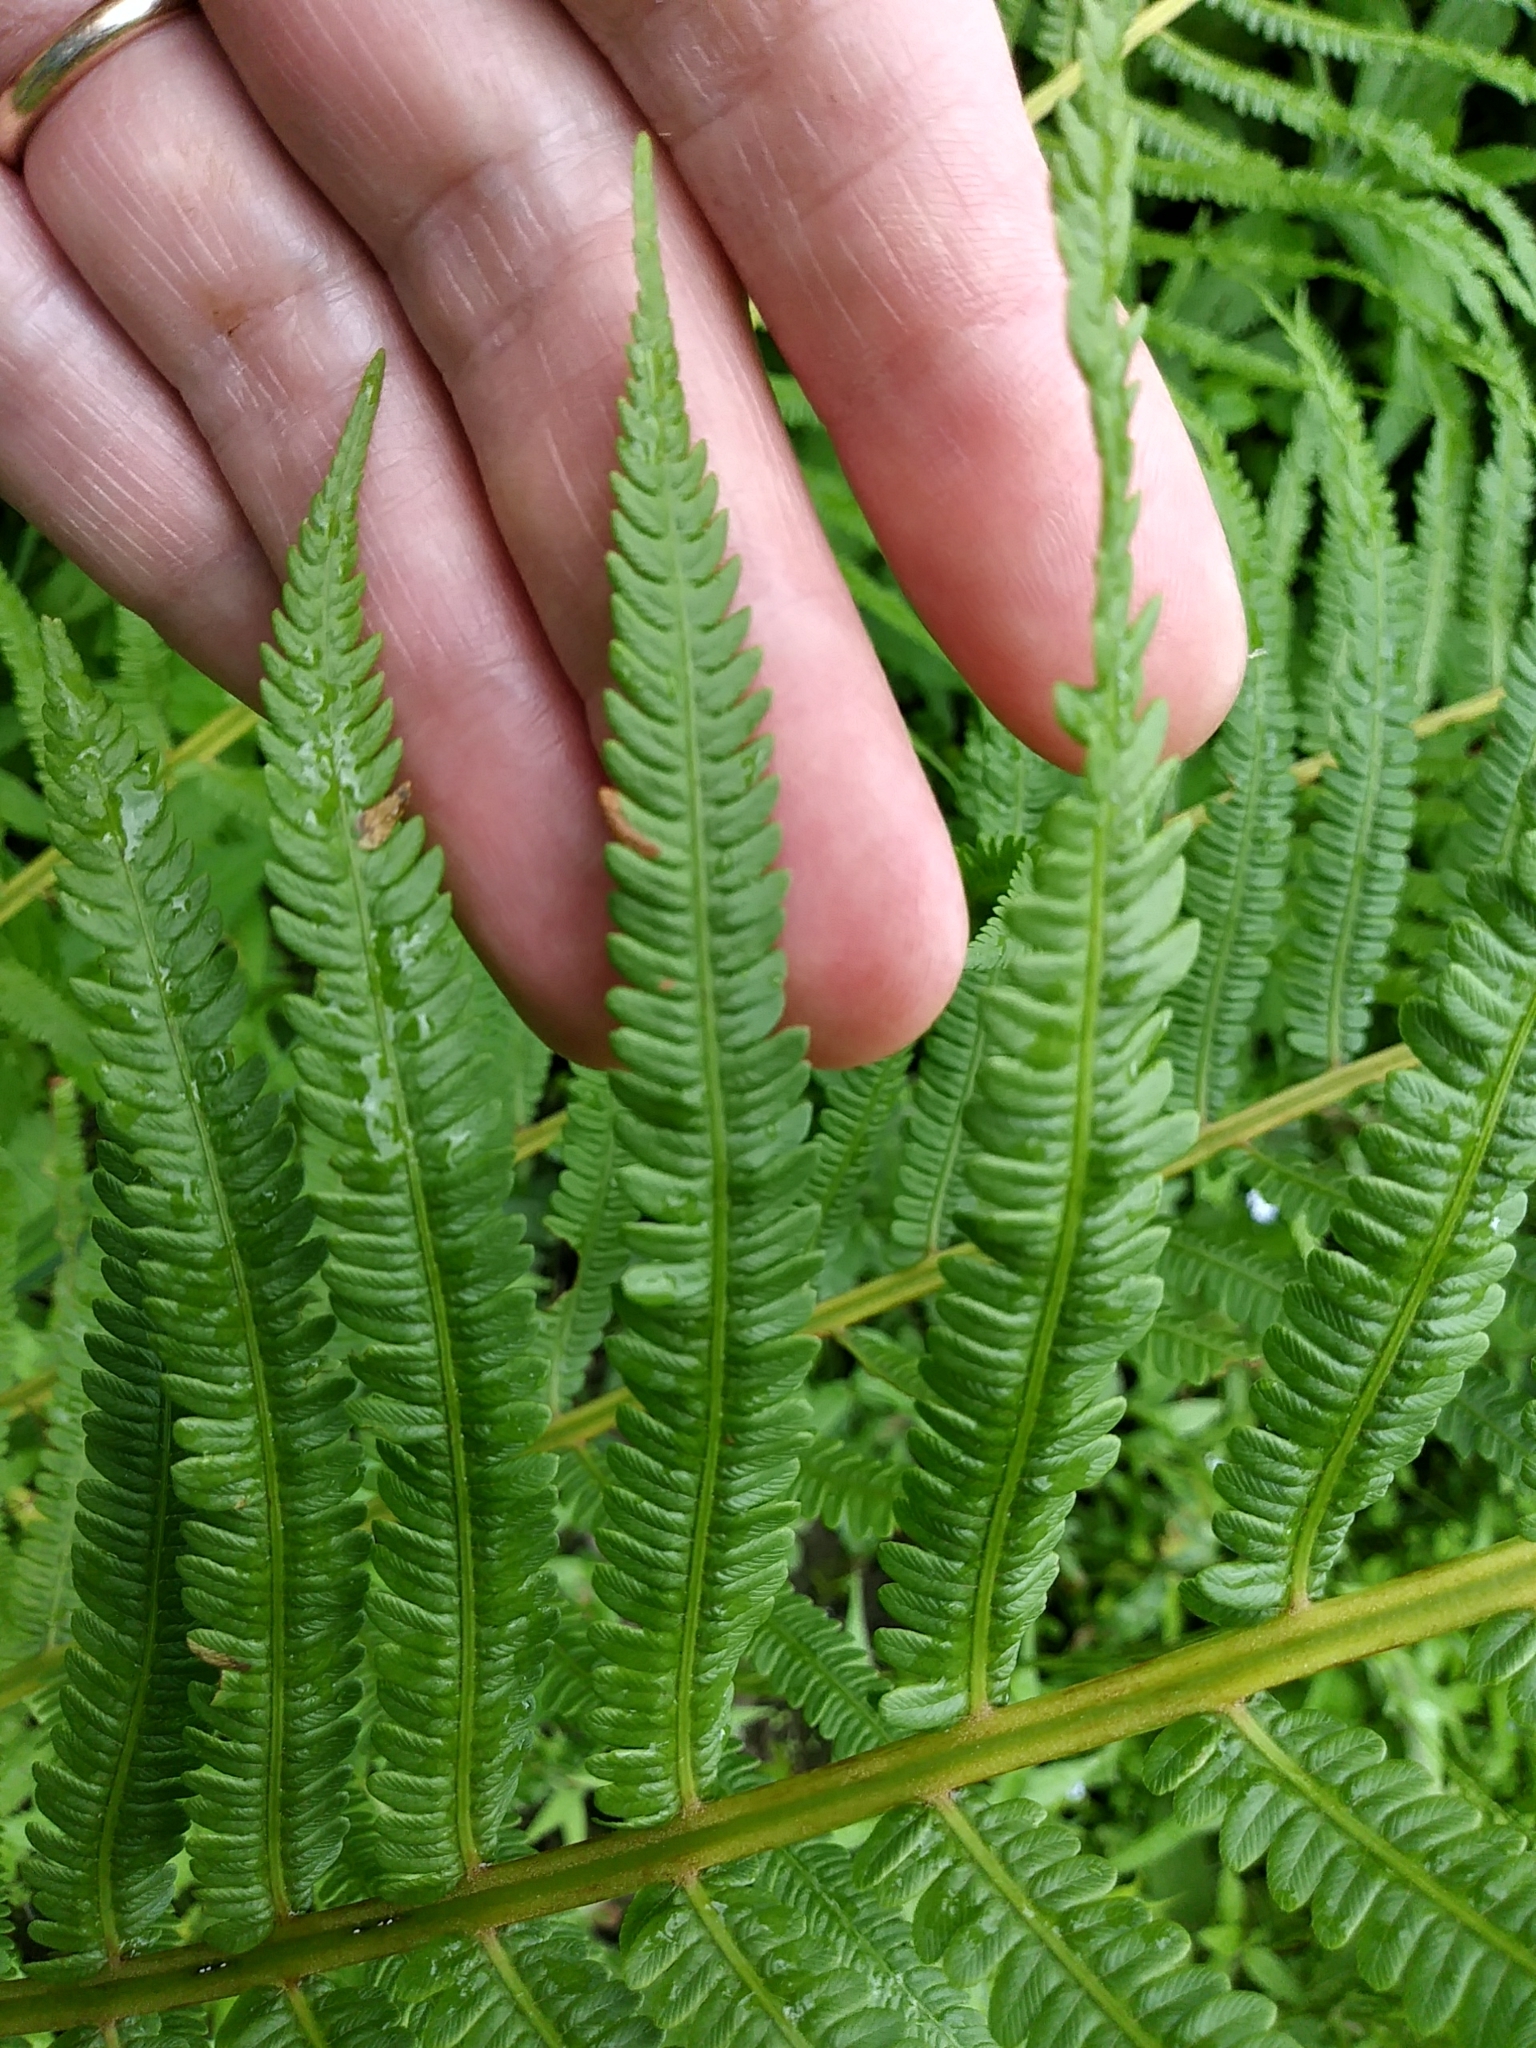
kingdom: Plantae
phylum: Tracheophyta
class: Polypodiopsida
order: Polypodiales
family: Onocleaceae
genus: Matteuccia
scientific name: Matteuccia struthiopteris
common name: Ostrich fern
